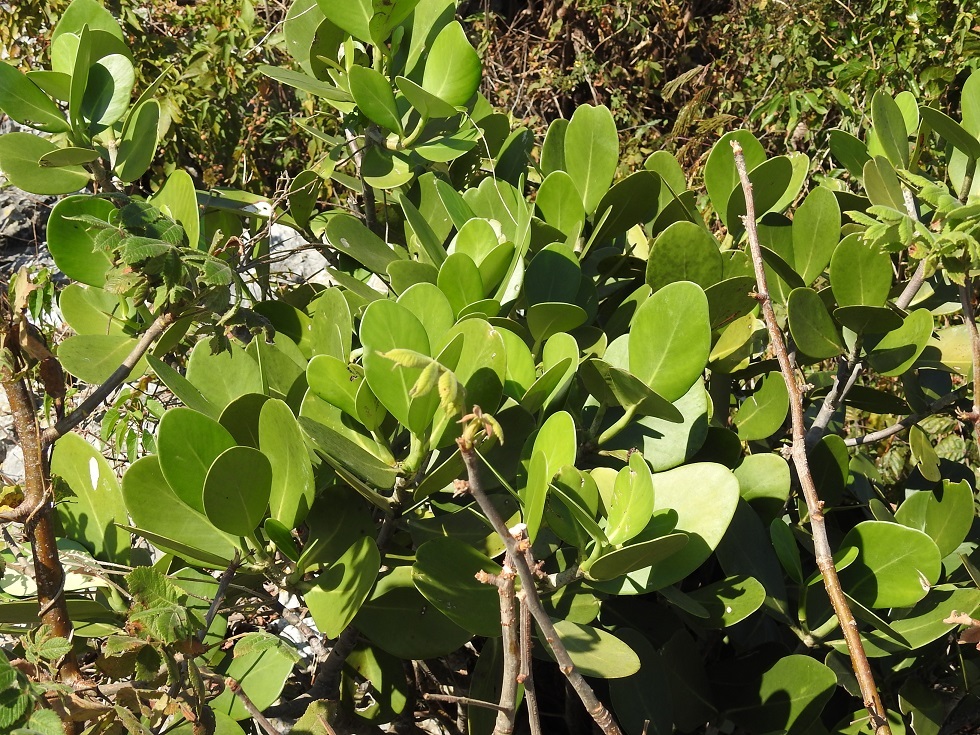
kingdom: Plantae
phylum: Tracheophyta
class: Magnoliopsida
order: Malpighiales
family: Clusiaceae
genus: Clusia
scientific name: Clusia tetratrianthera
